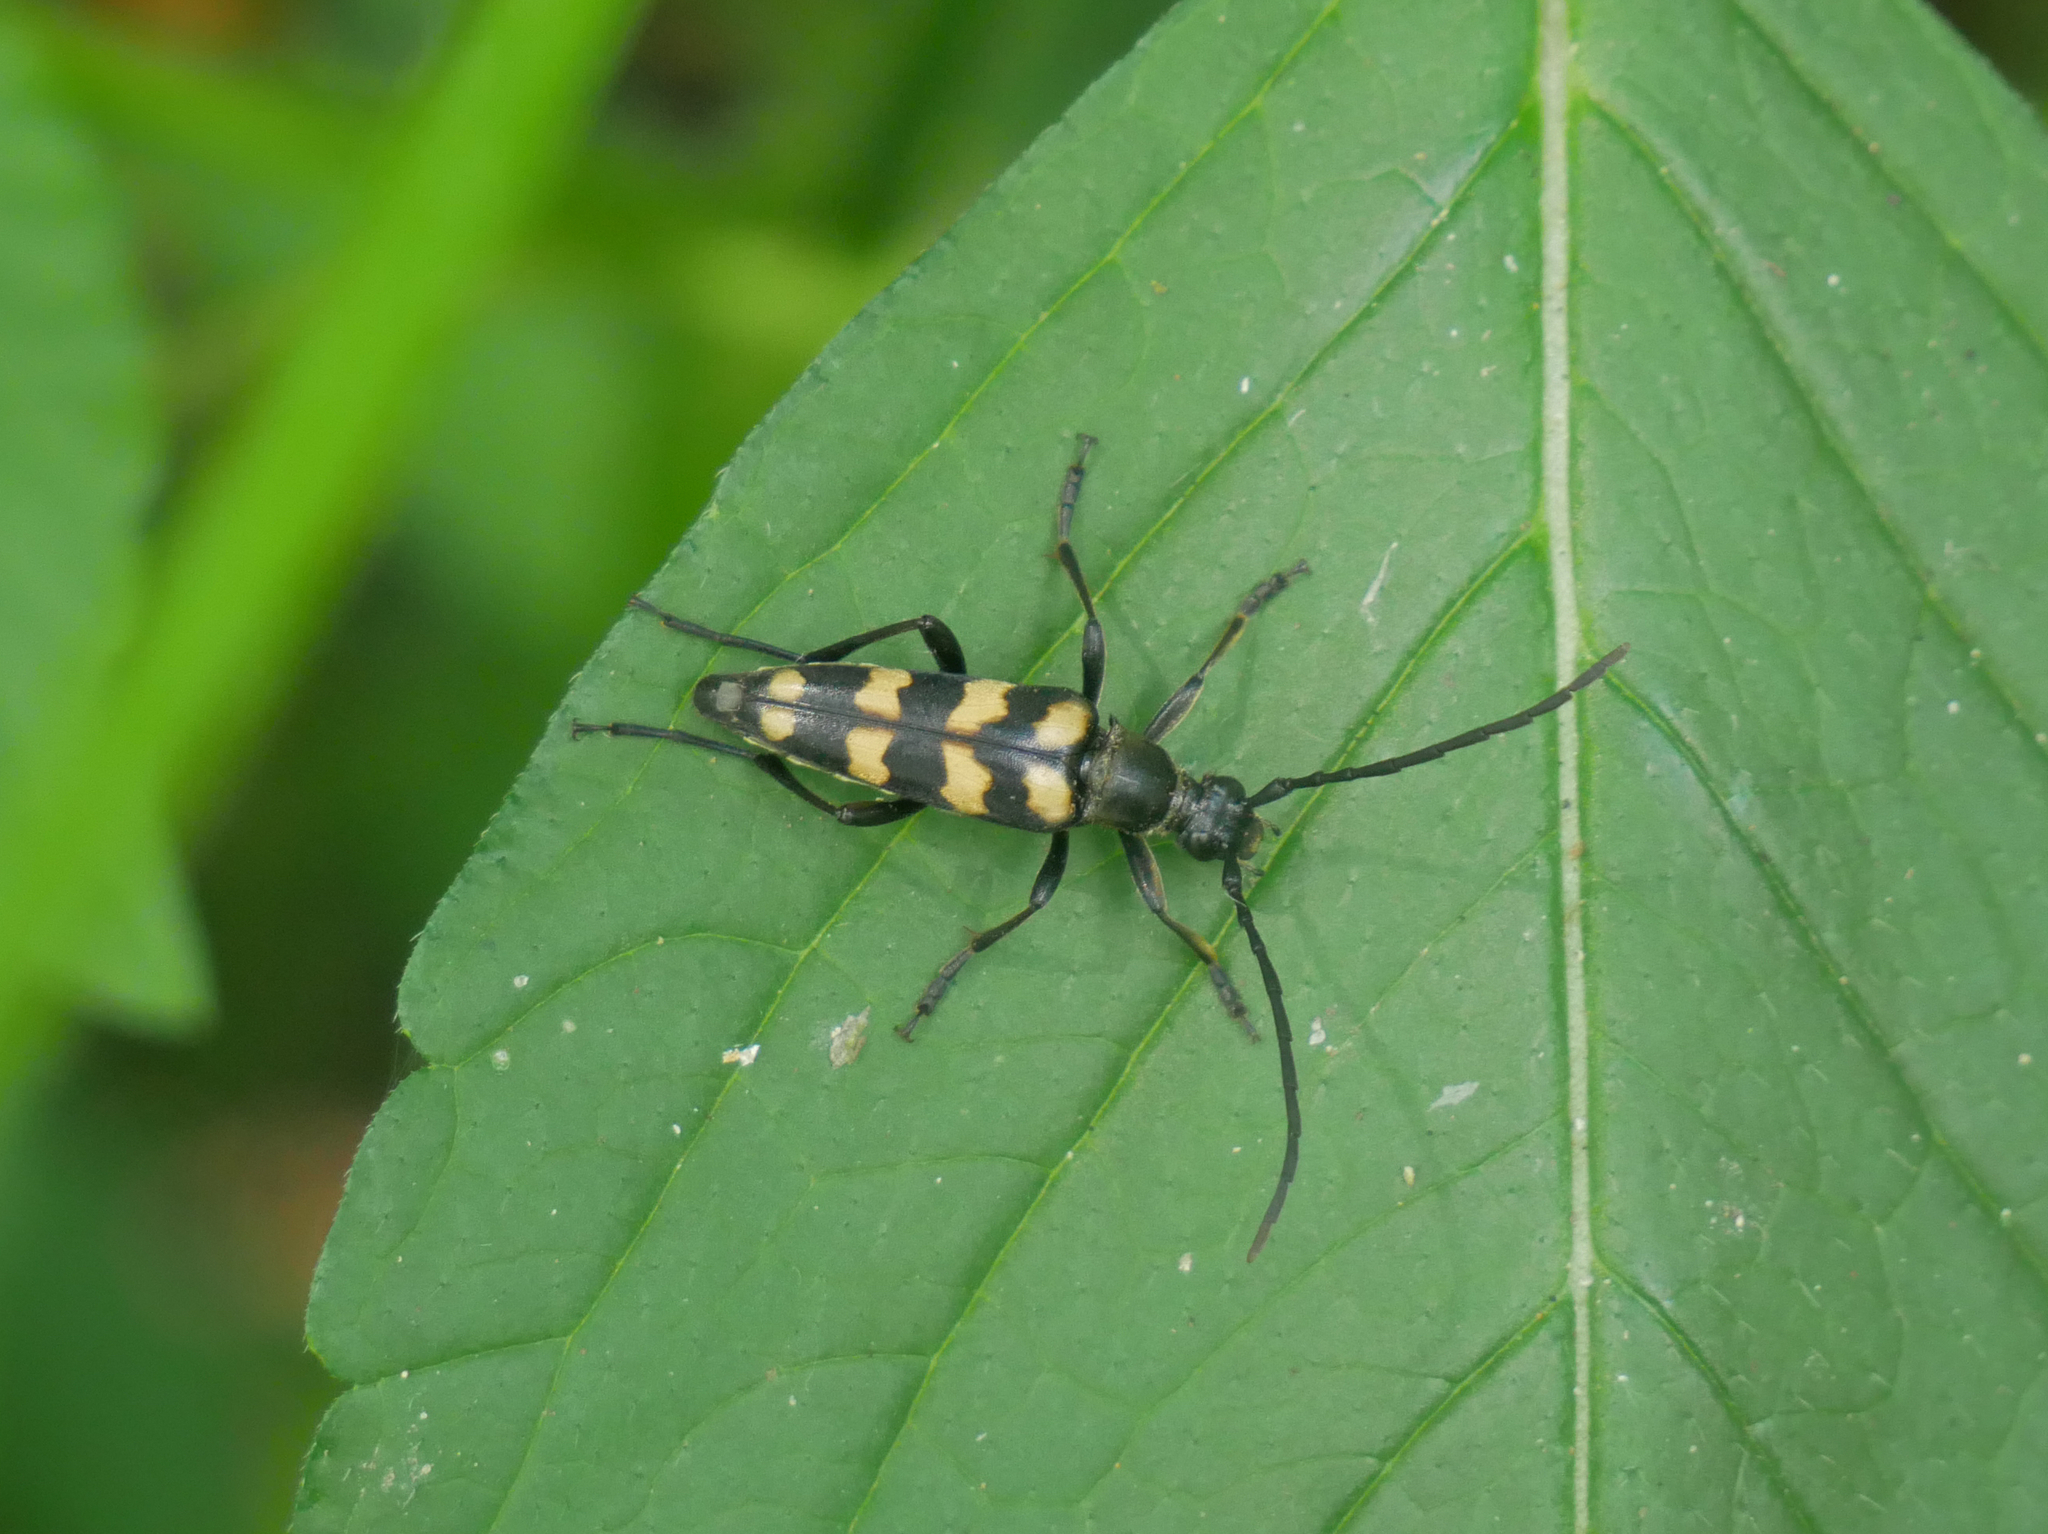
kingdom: Animalia
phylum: Arthropoda
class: Insecta
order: Coleoptera
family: Cerambycidae
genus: Leptura
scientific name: Leptura quadrifasciata
